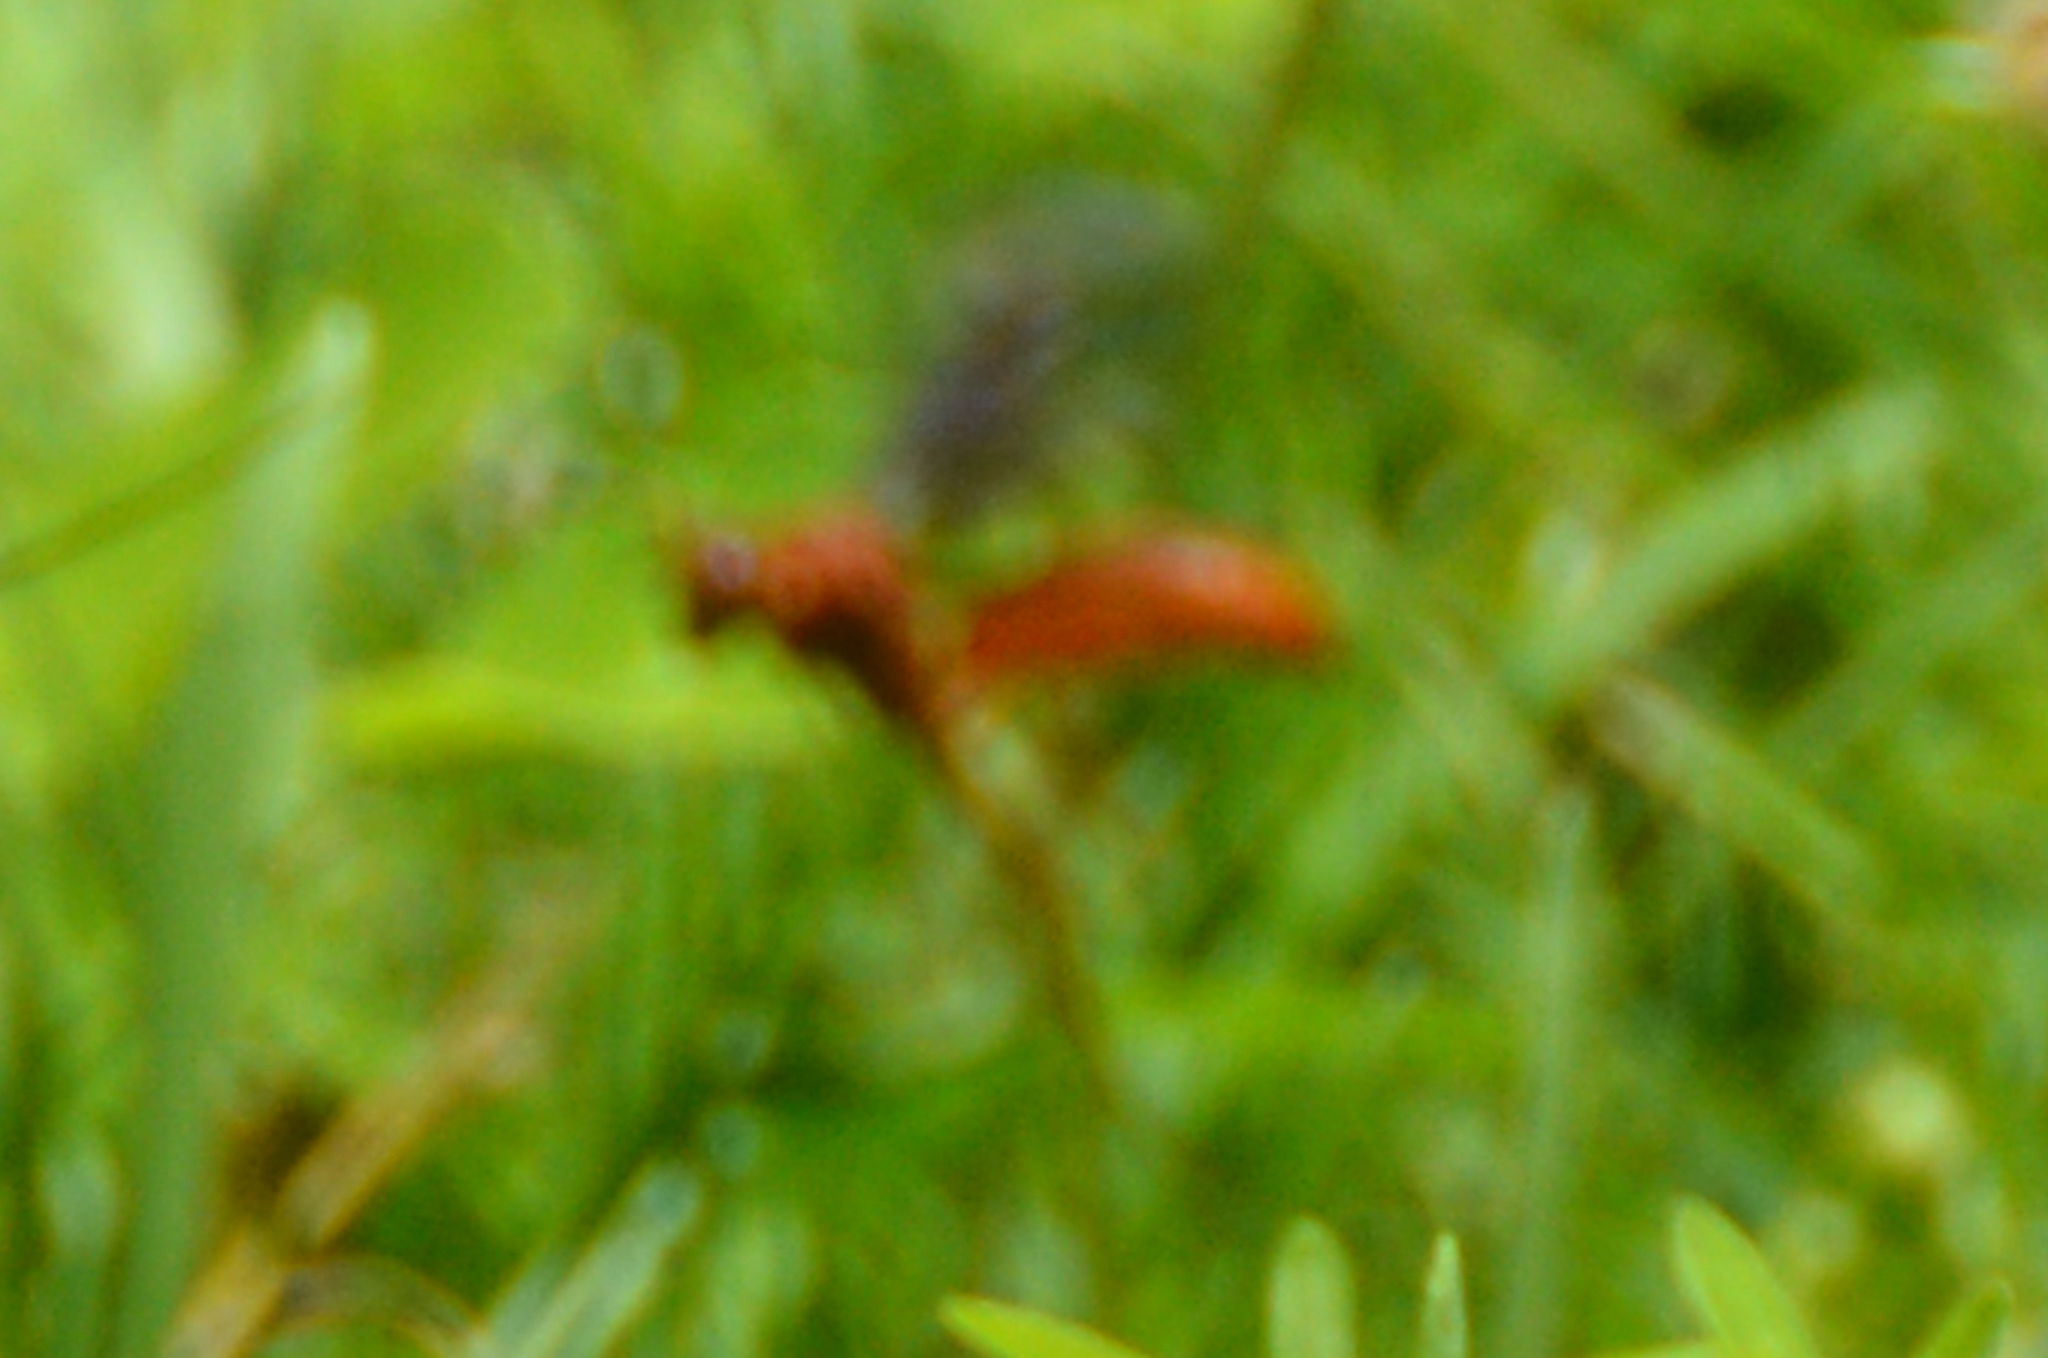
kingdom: Animalia
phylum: Arthropoda
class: Insecta
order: Hymenoptera
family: Vespidae
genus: Fuscopolistes
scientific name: Fuscopolistes
